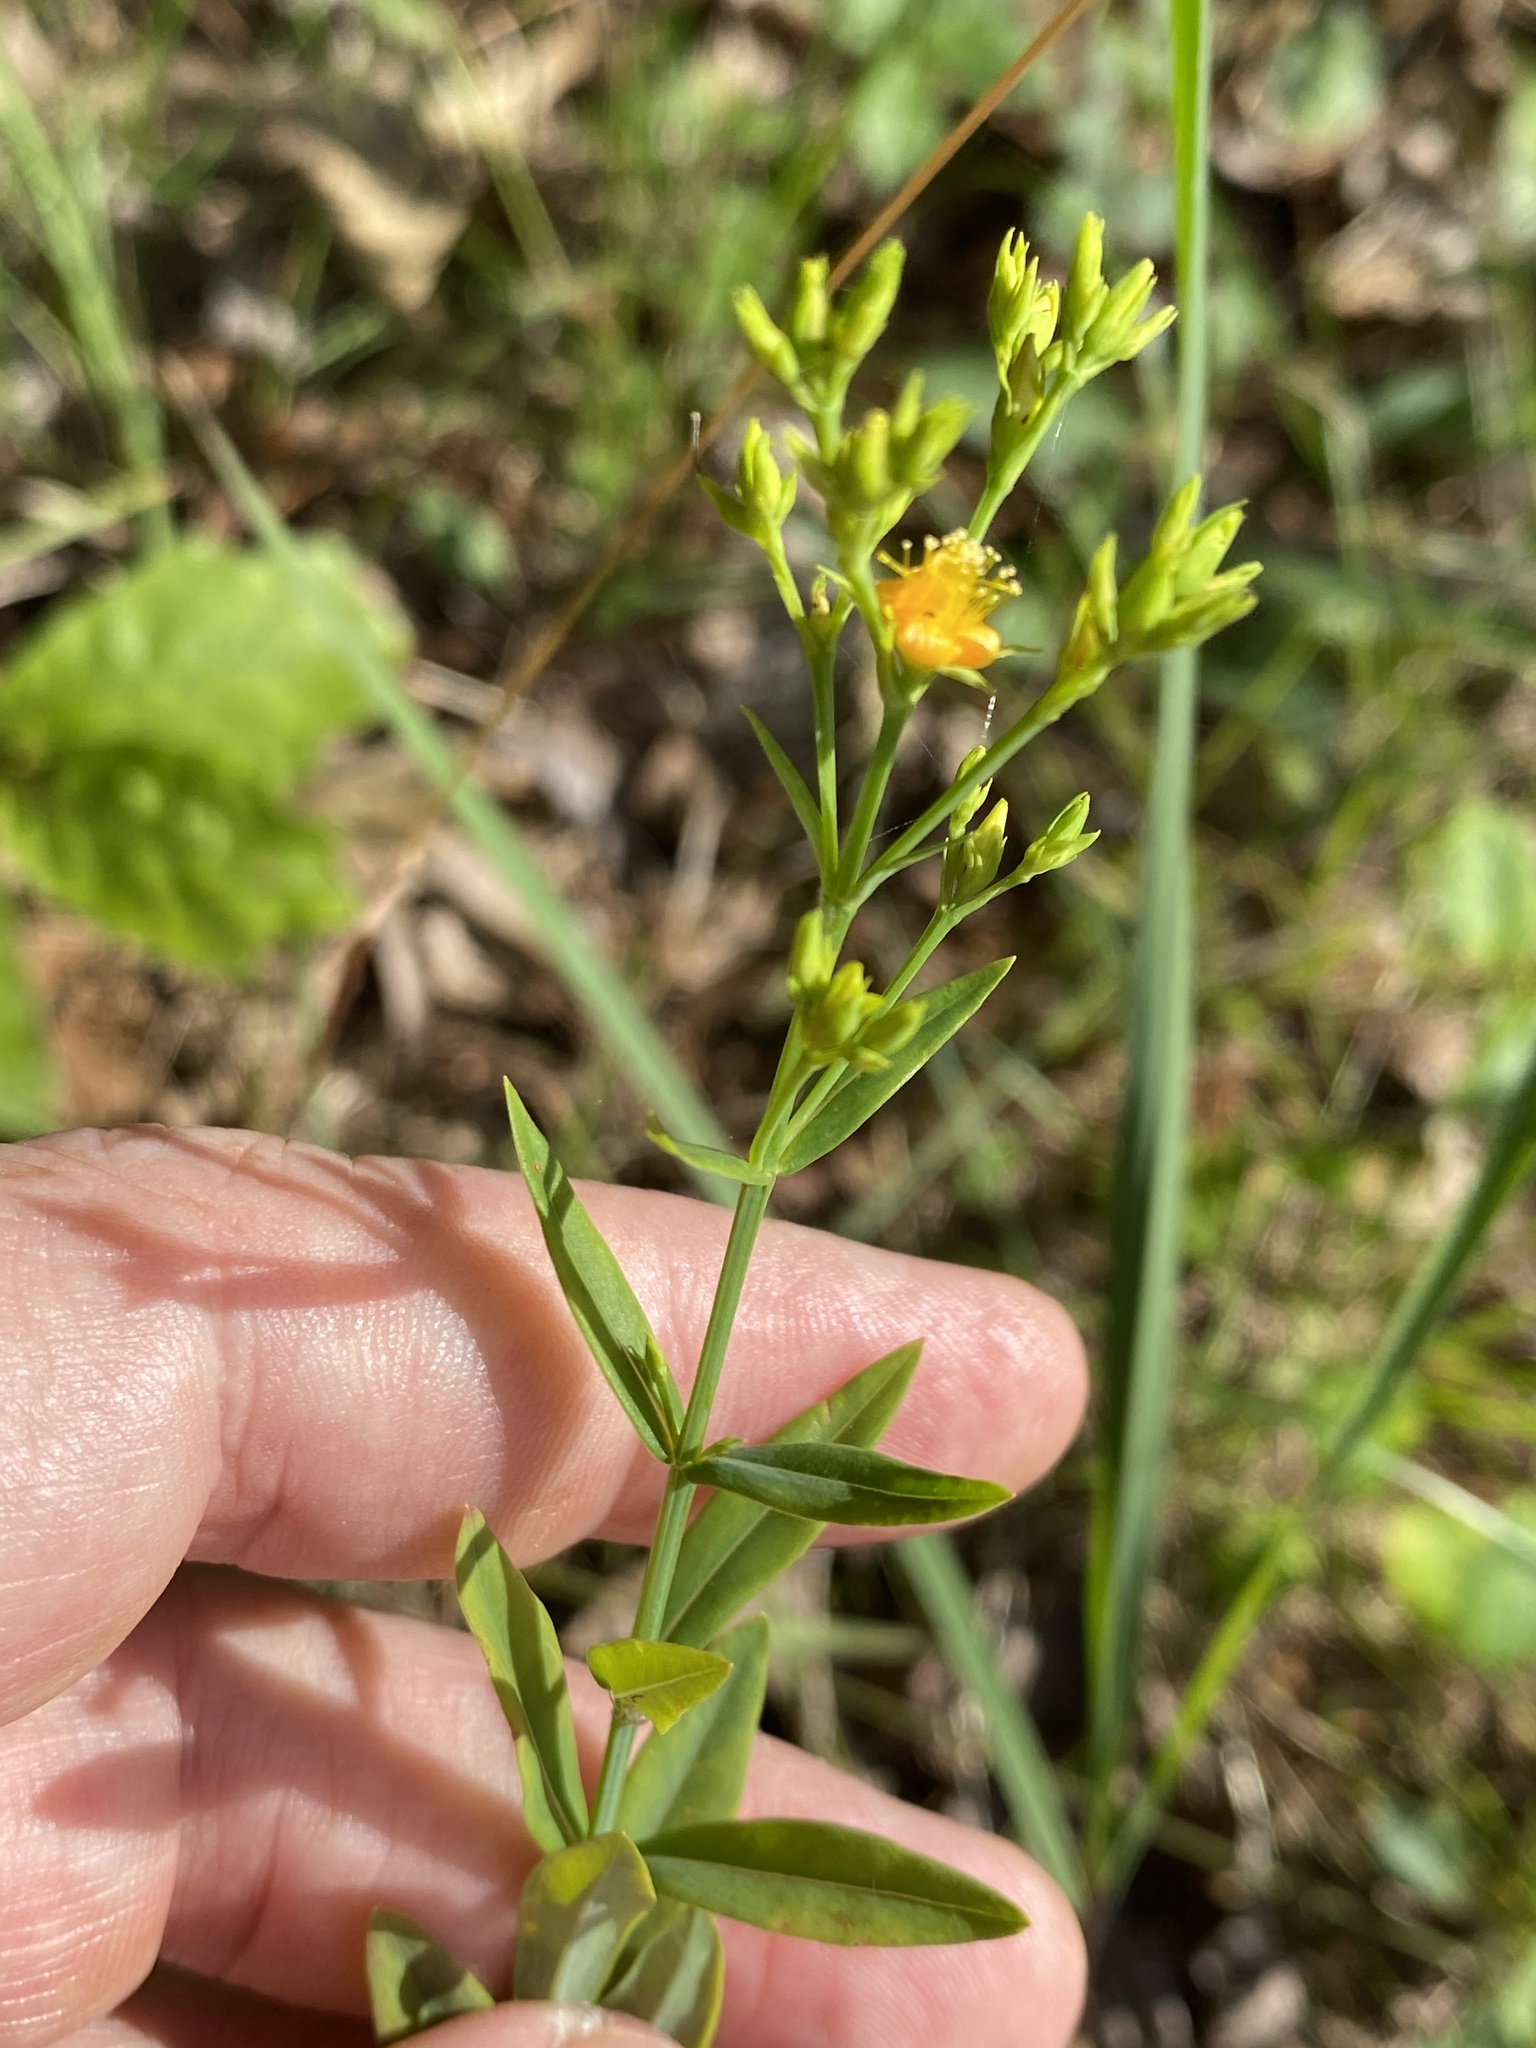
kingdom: Plantae
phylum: Tracheophyta
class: Magnoliopsida
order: Malpighiales
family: Hypericaceae
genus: Hypericum
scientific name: Hypericum virgatum
